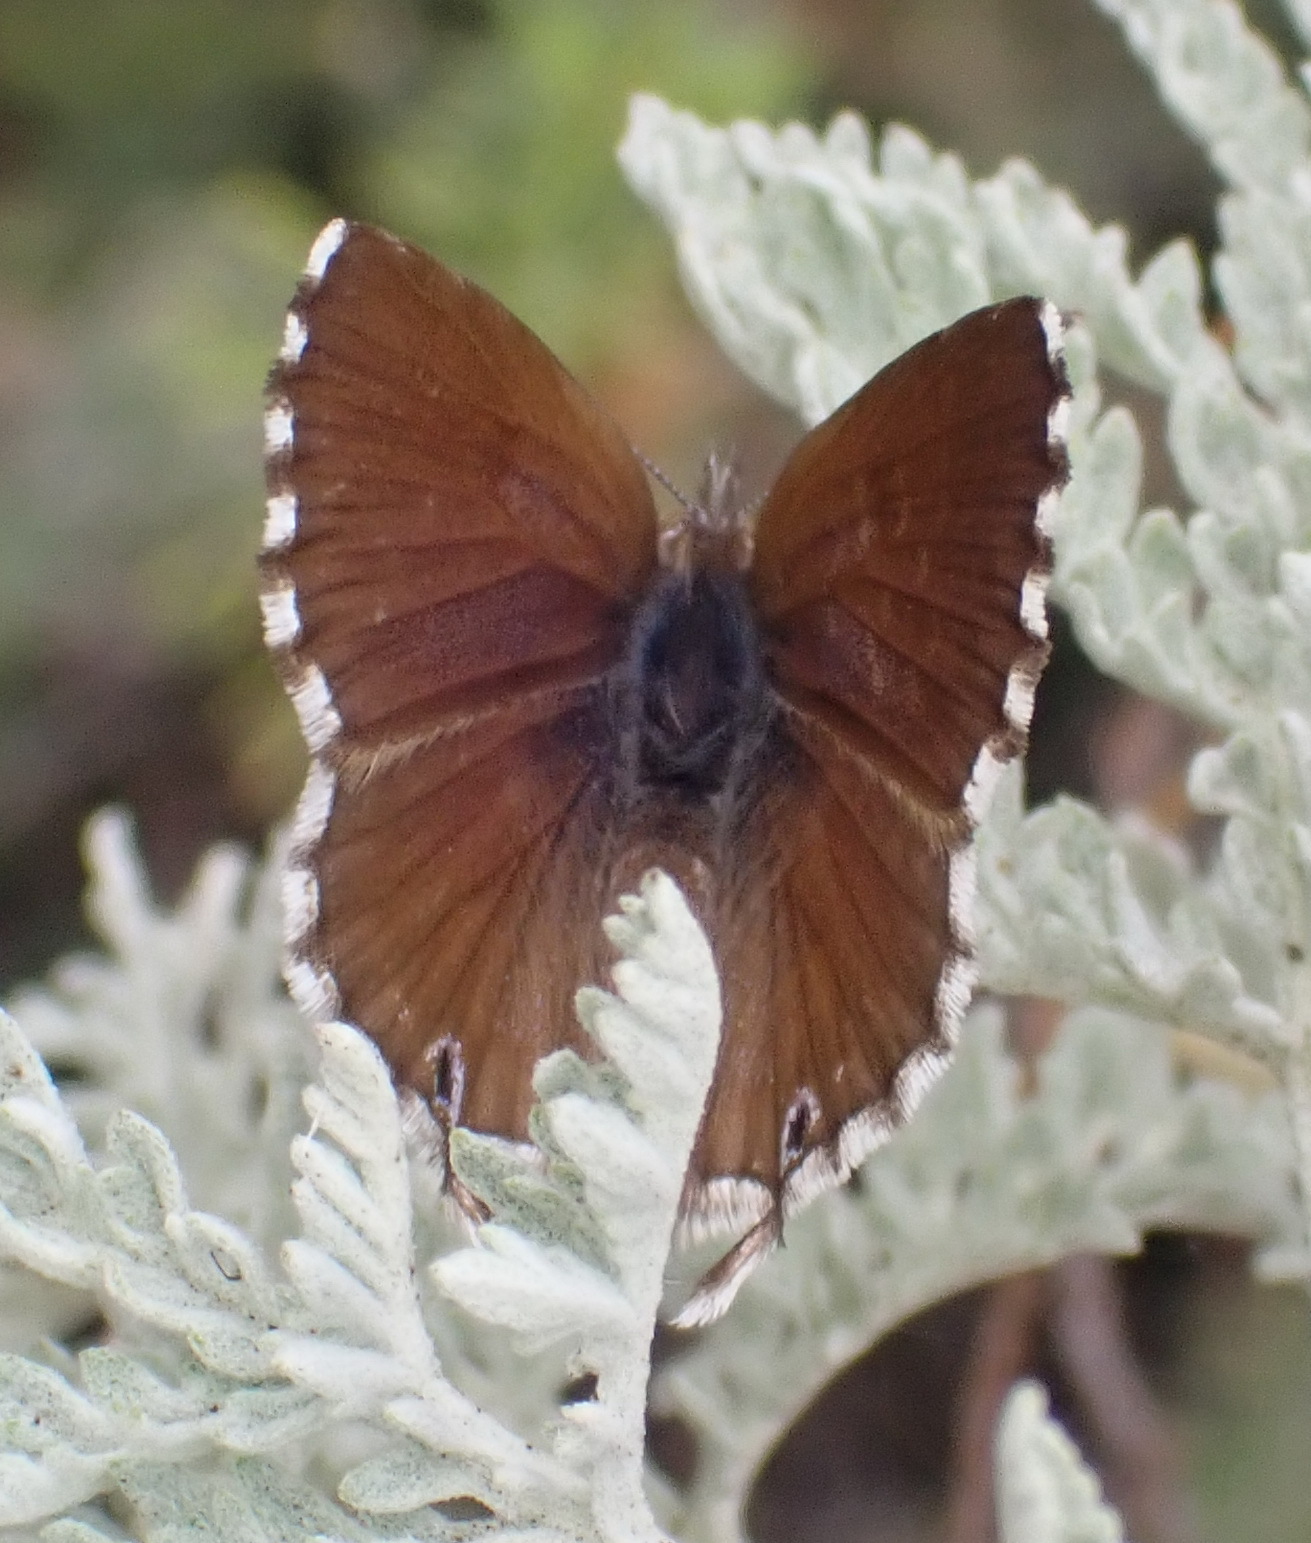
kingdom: Animalia
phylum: Arthropoda
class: Insecta
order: Lepidoptera
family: Lycaenidae
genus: Cacyreus
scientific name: Cacyreus fracta
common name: Water bronze
